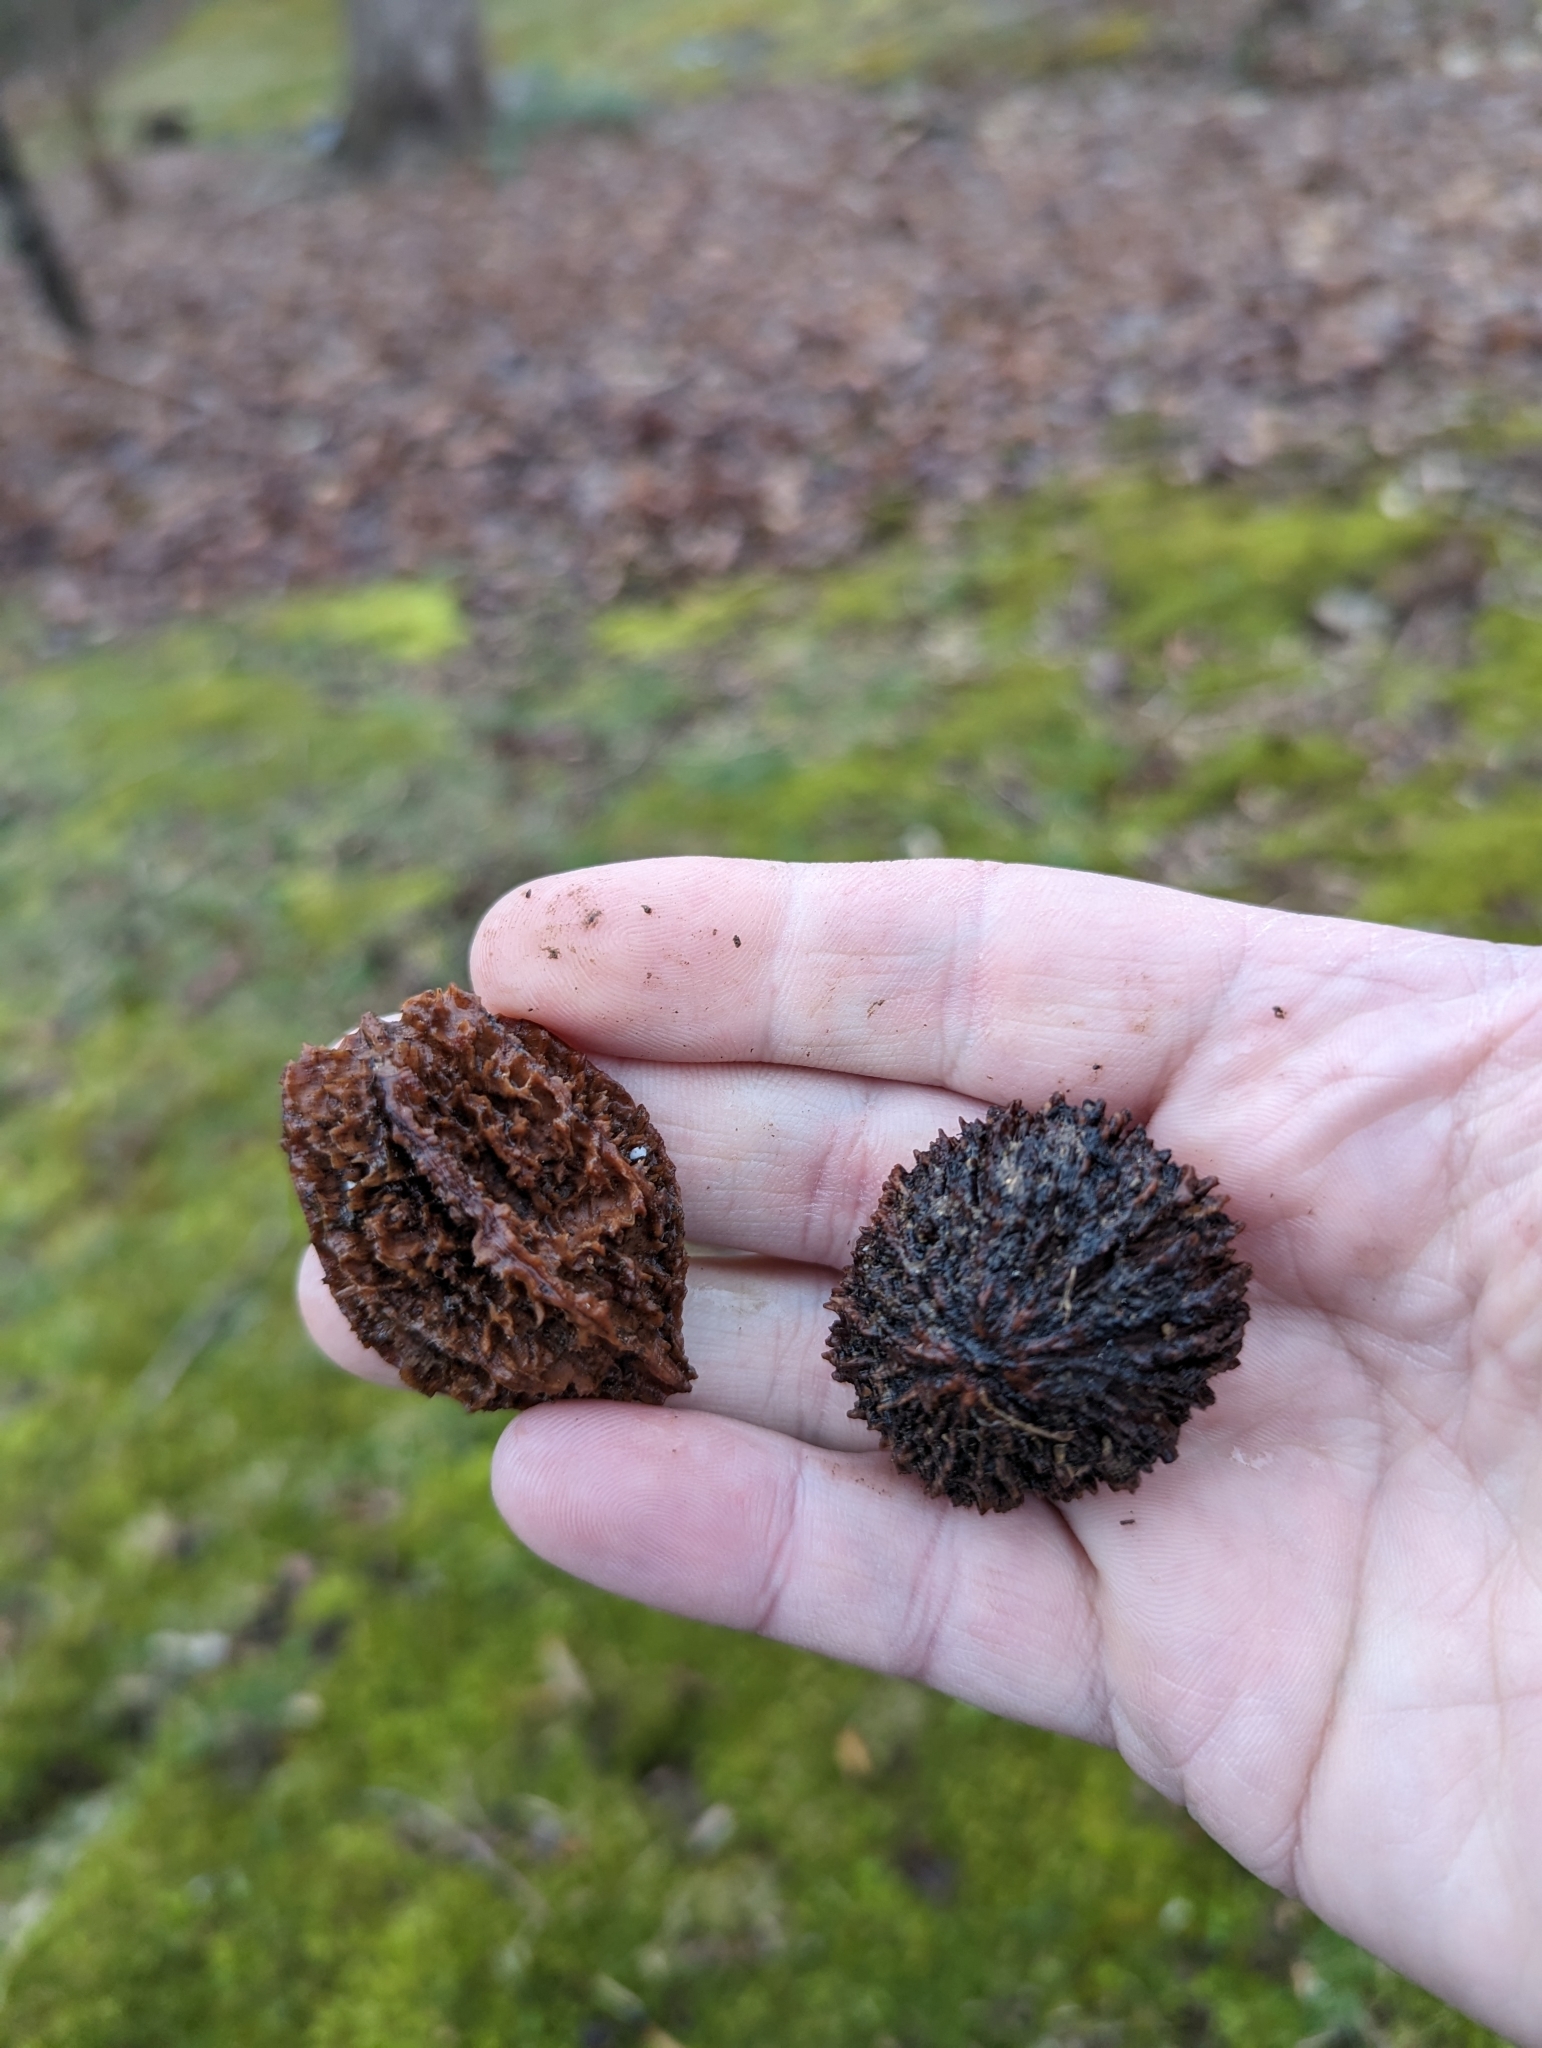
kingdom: Plantae
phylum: Tracheophyta
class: Magnoliopsida
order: Fagales
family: Juglandaceae
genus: Juglans
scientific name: Juglans nigra
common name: Black walnut
